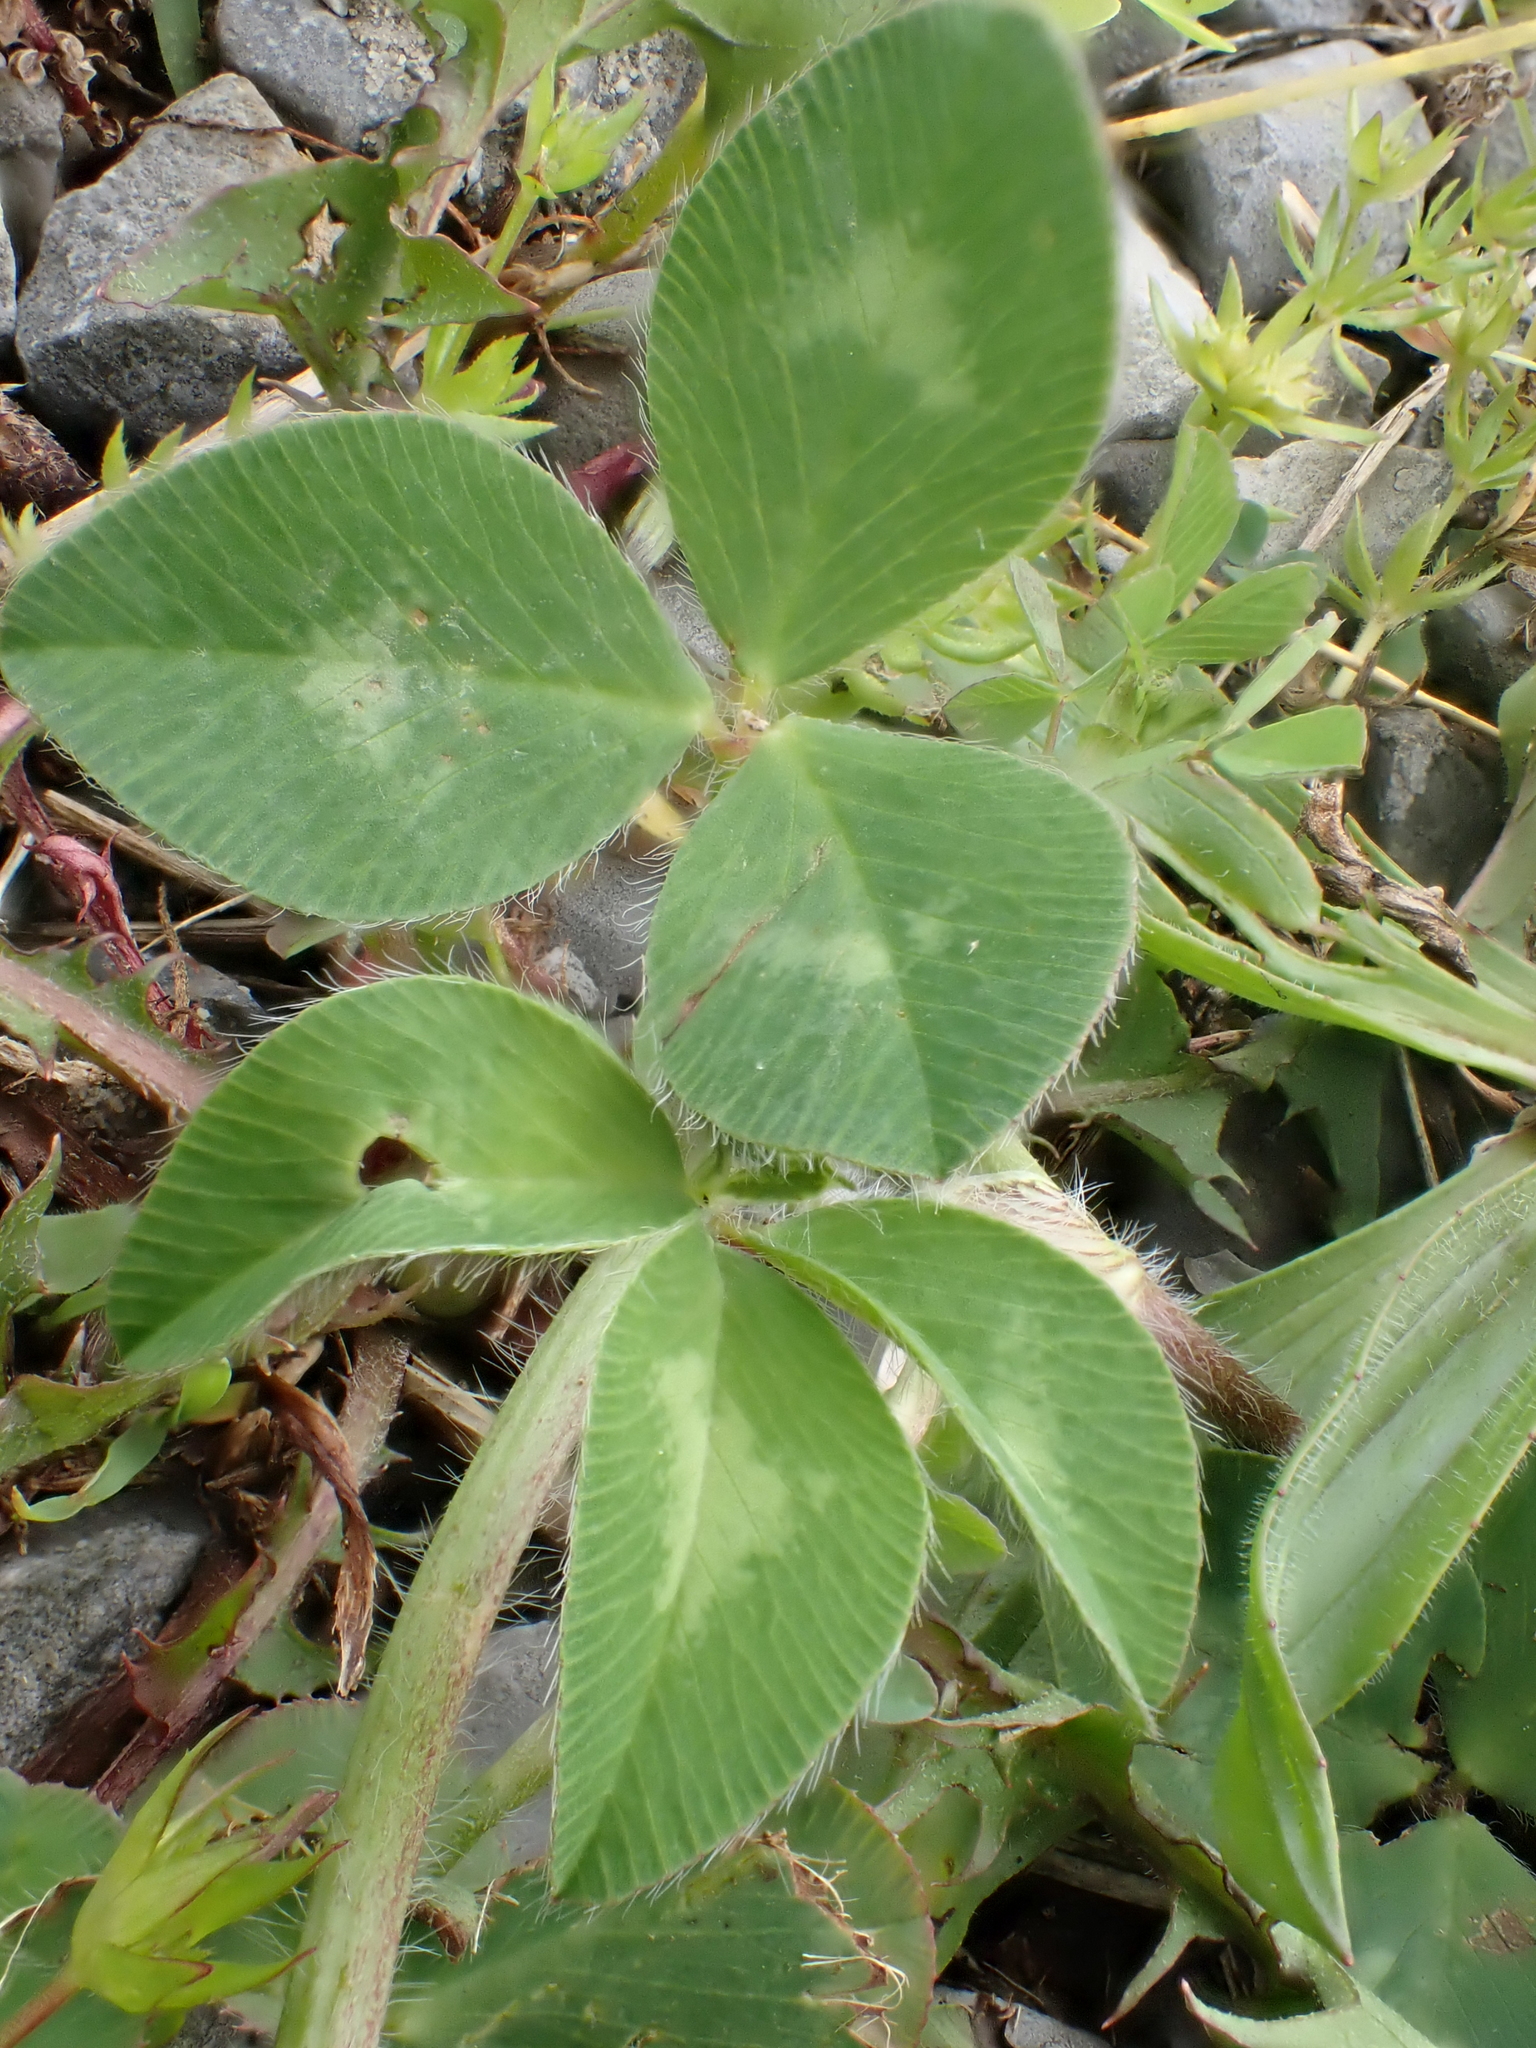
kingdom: Plantae
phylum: Tracheophyta
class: Magnoliopsida
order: Fabales
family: Fabaceae
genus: Trifolium
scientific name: Trifolium pratense
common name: Red clover
